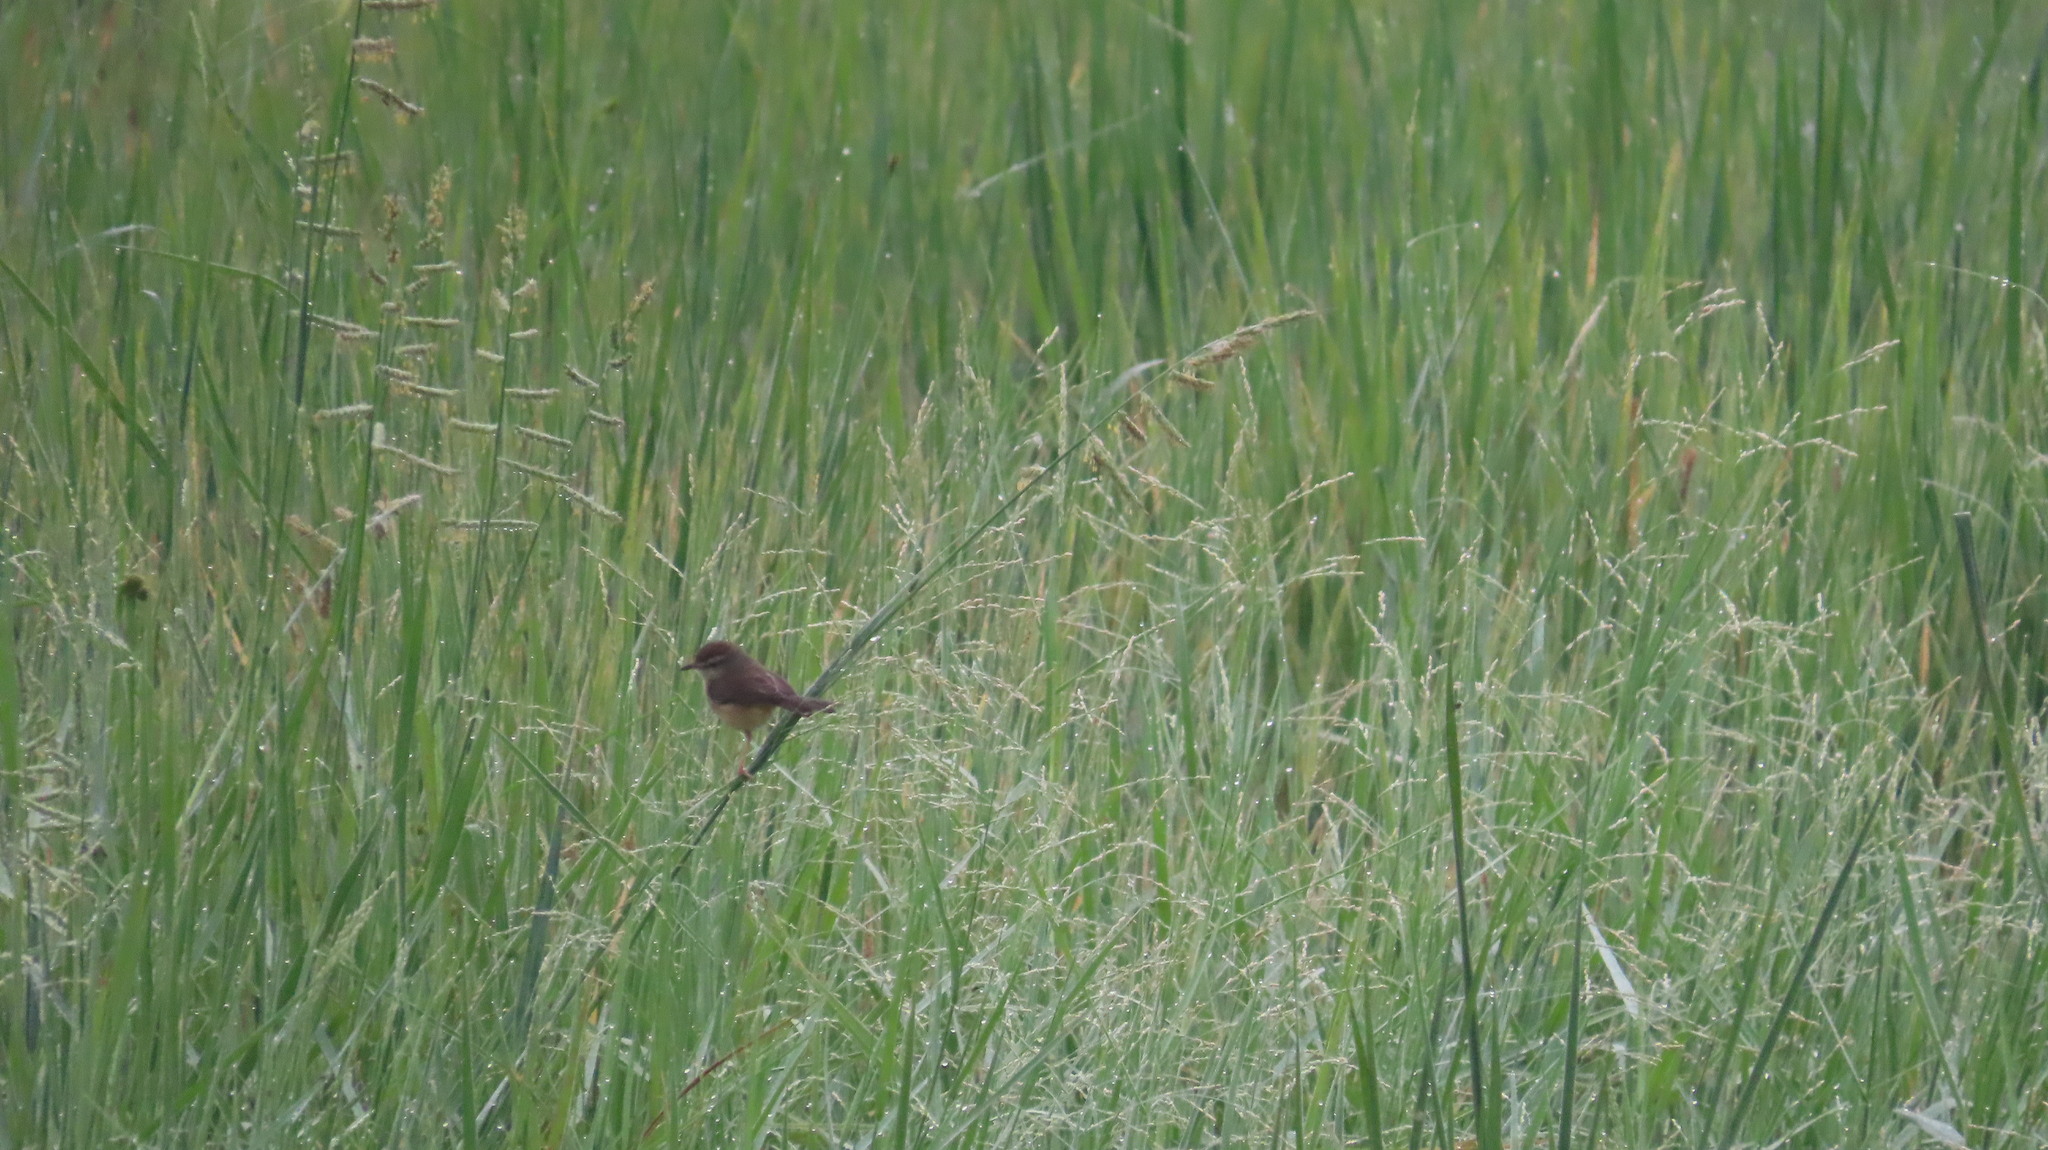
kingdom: Animalia
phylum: Chordata
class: Aves
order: Passeriformes
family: Cisticolidae
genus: Prinia
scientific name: Prinia inornata
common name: Plain prinia
